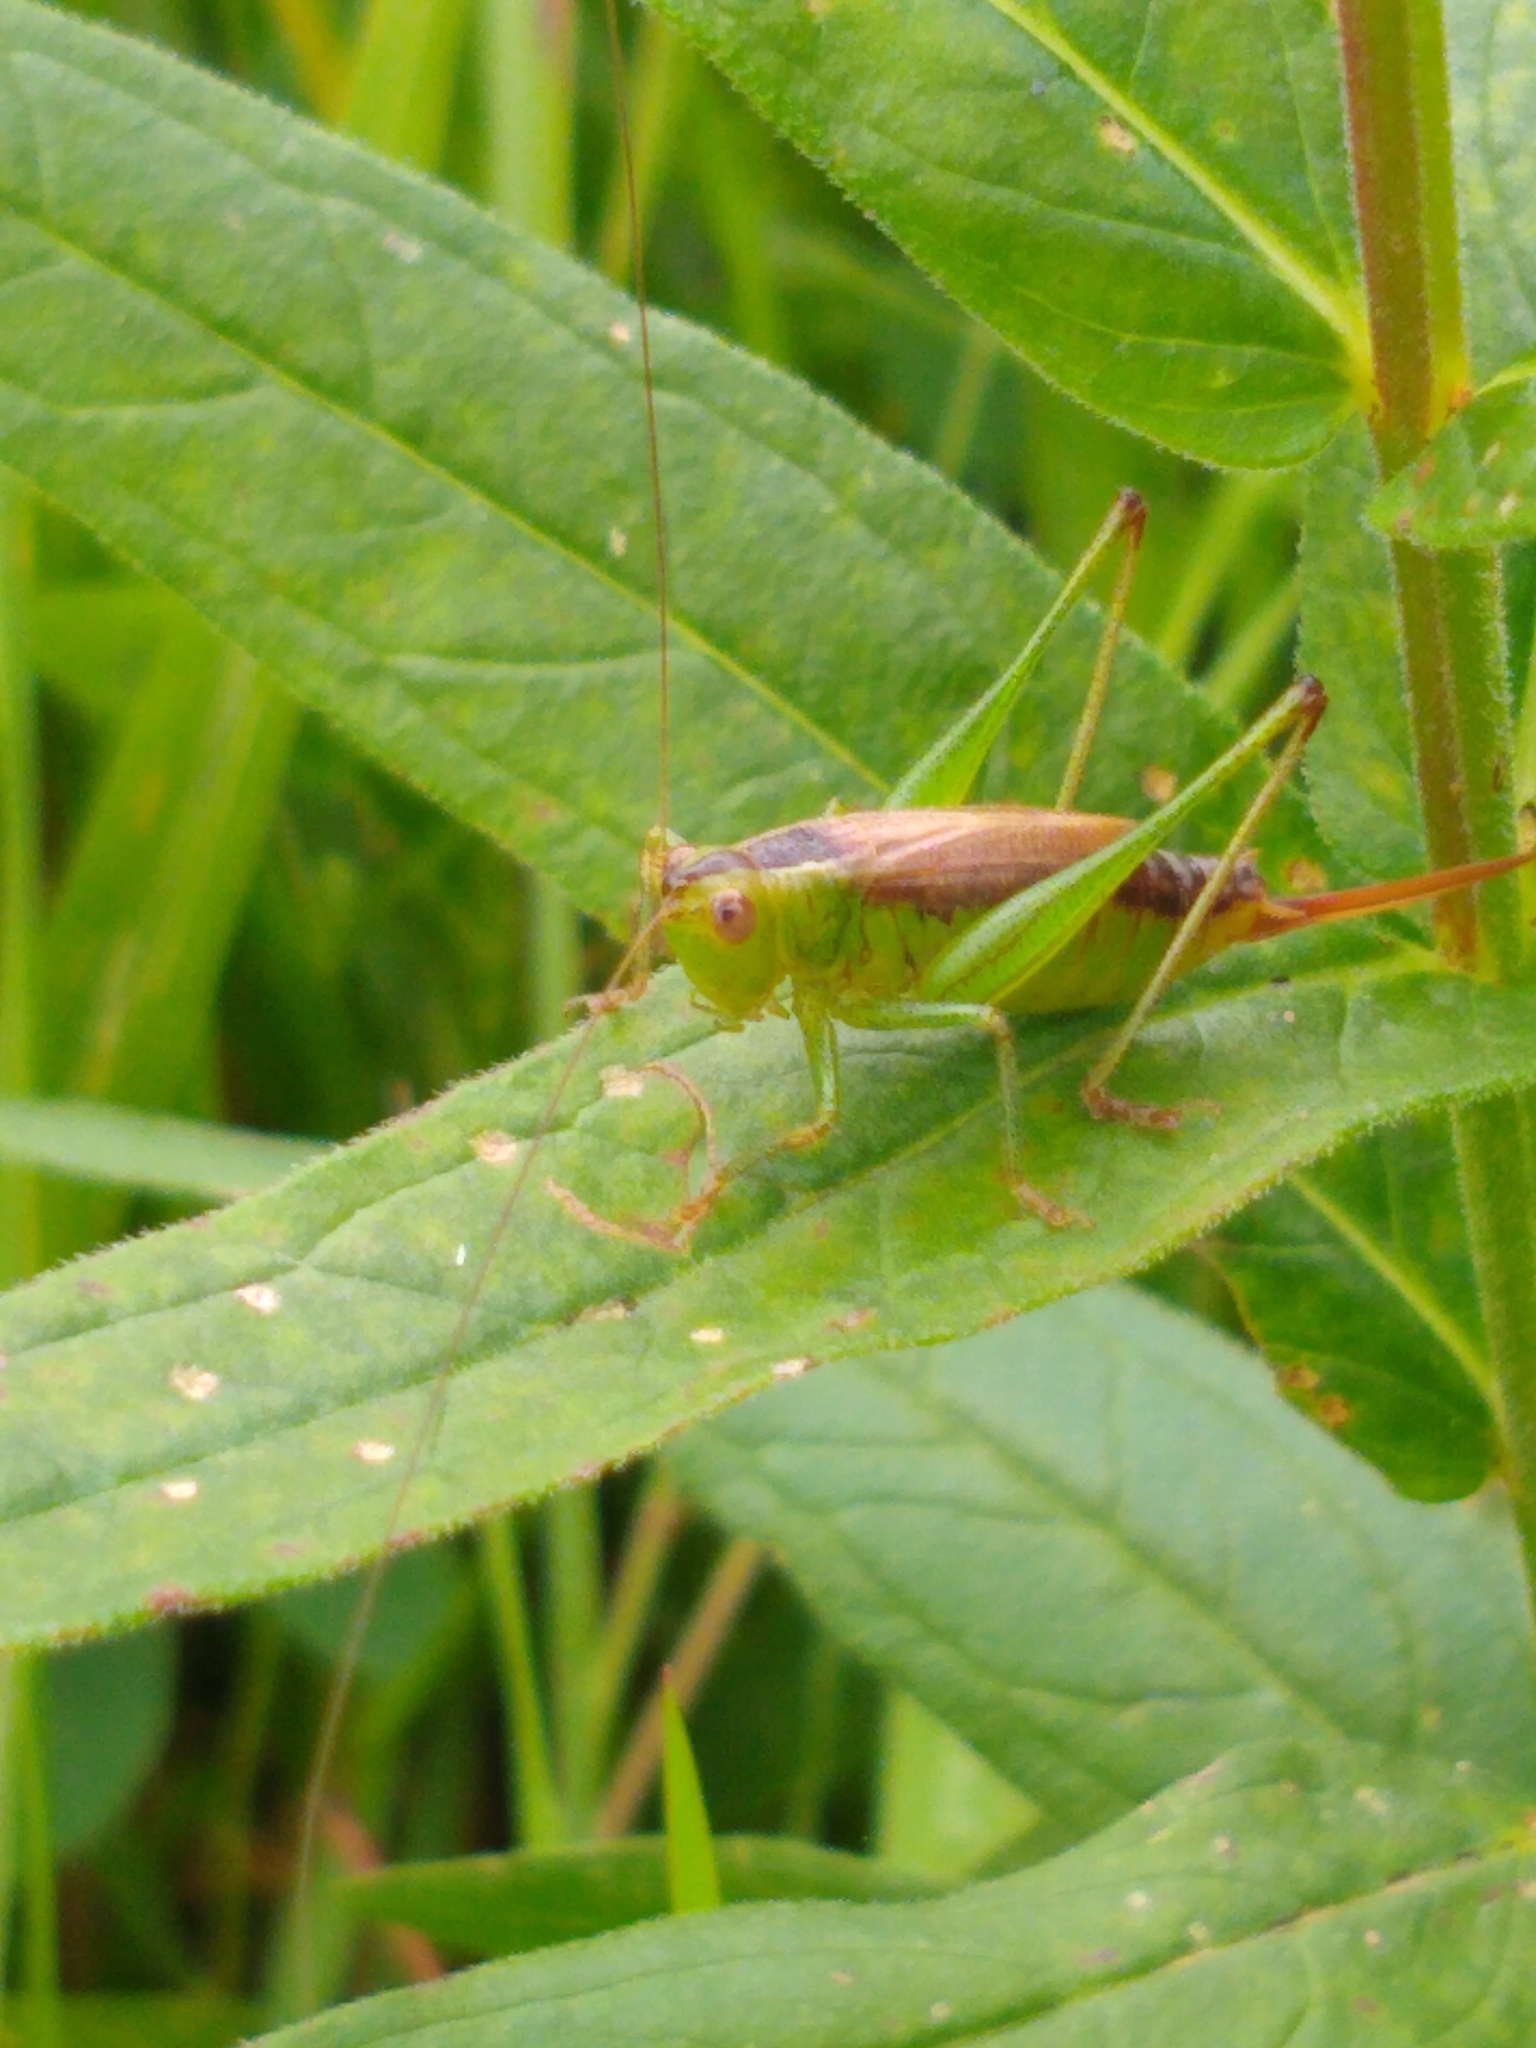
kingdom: Animalia
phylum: Arthropoda
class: Insecta
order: Orthoptera
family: Tettigoniidae
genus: Conocephalus
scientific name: Conocephalus brevipennis
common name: Short-winged meadow katydid
